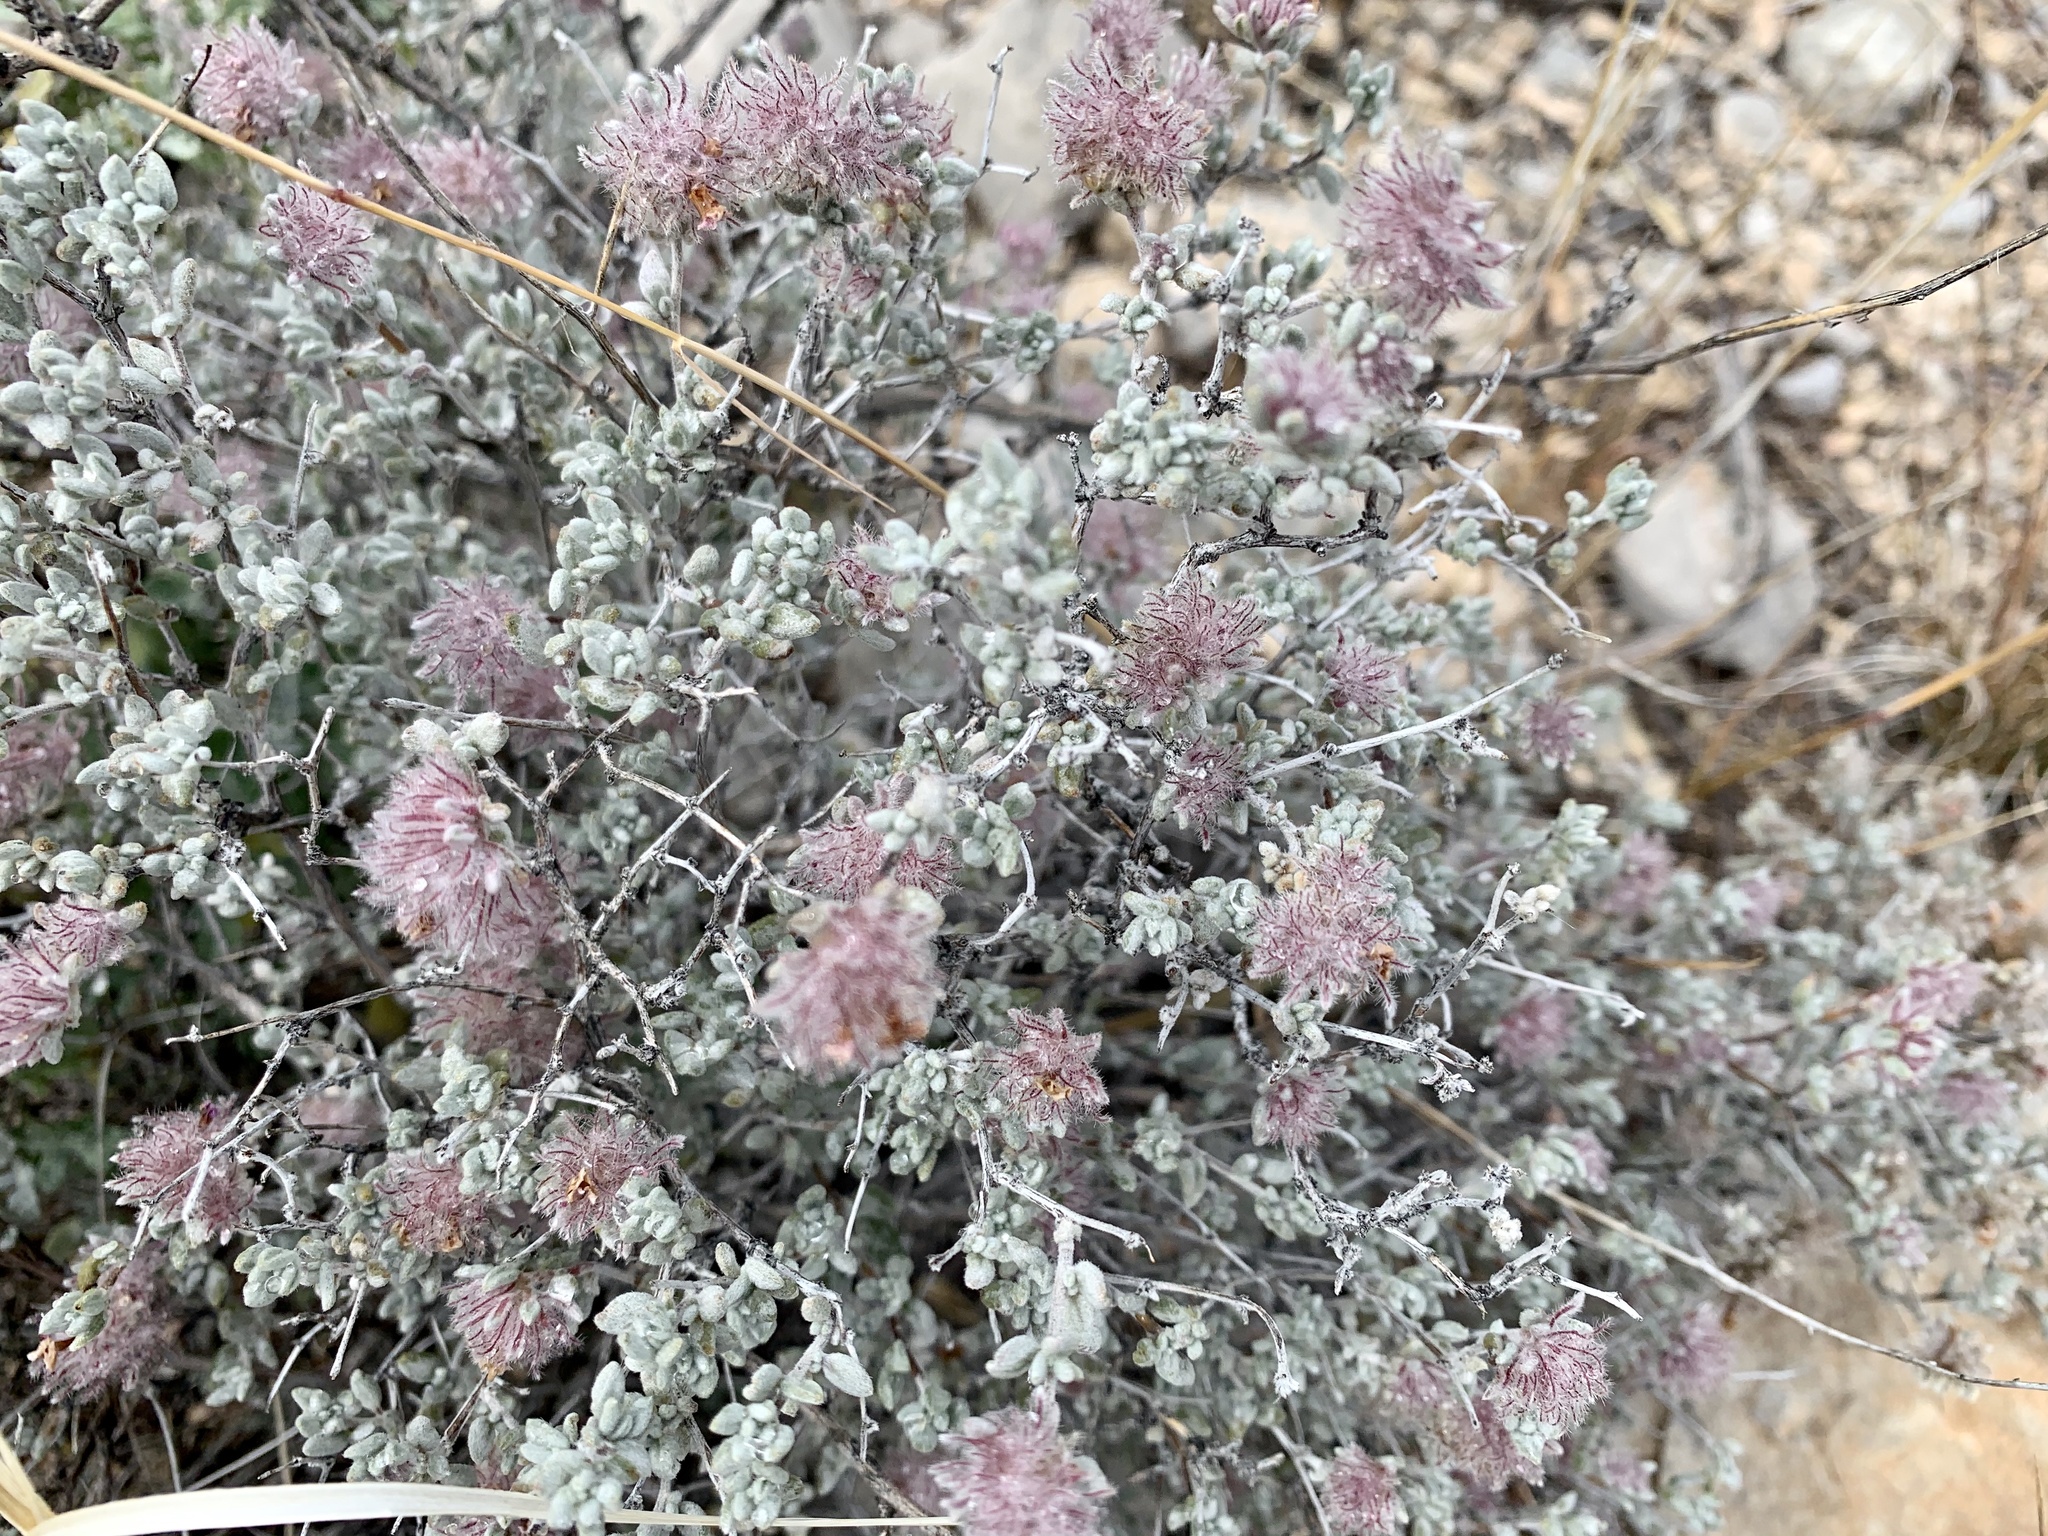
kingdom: Plantae
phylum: Tracheophyta
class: Magnoliopsida
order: Boraginales
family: Ehretiaceae
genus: Tiquilia
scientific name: Tiquilia greggii
